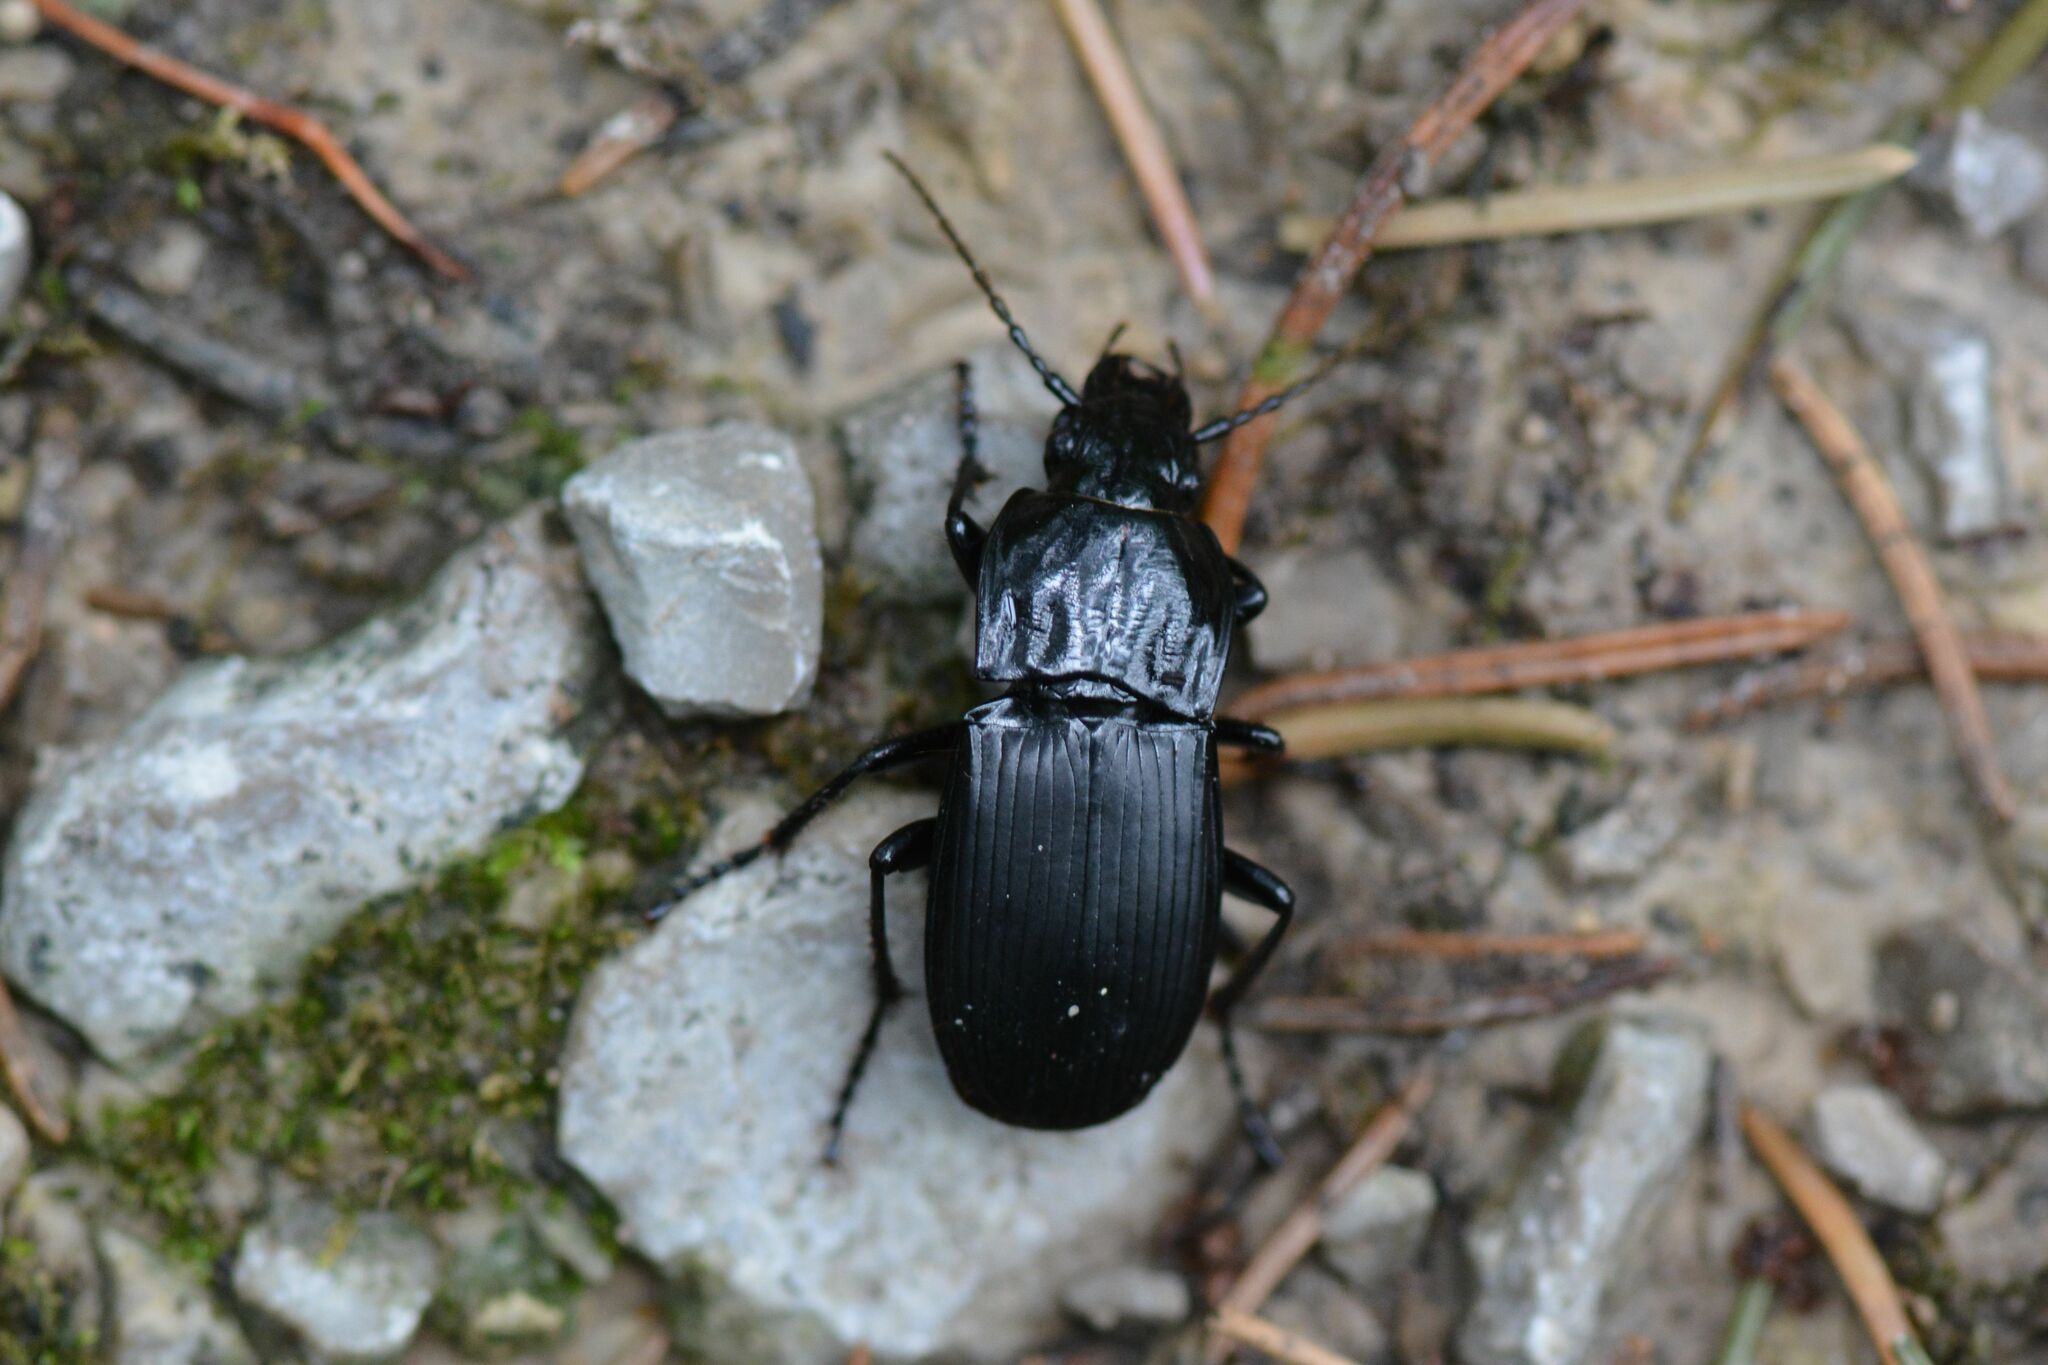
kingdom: Animalia
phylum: Arthropoda
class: Insecta
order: Coleoptera
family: Carabidae
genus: Abax
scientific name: Abax parallelepipedus
